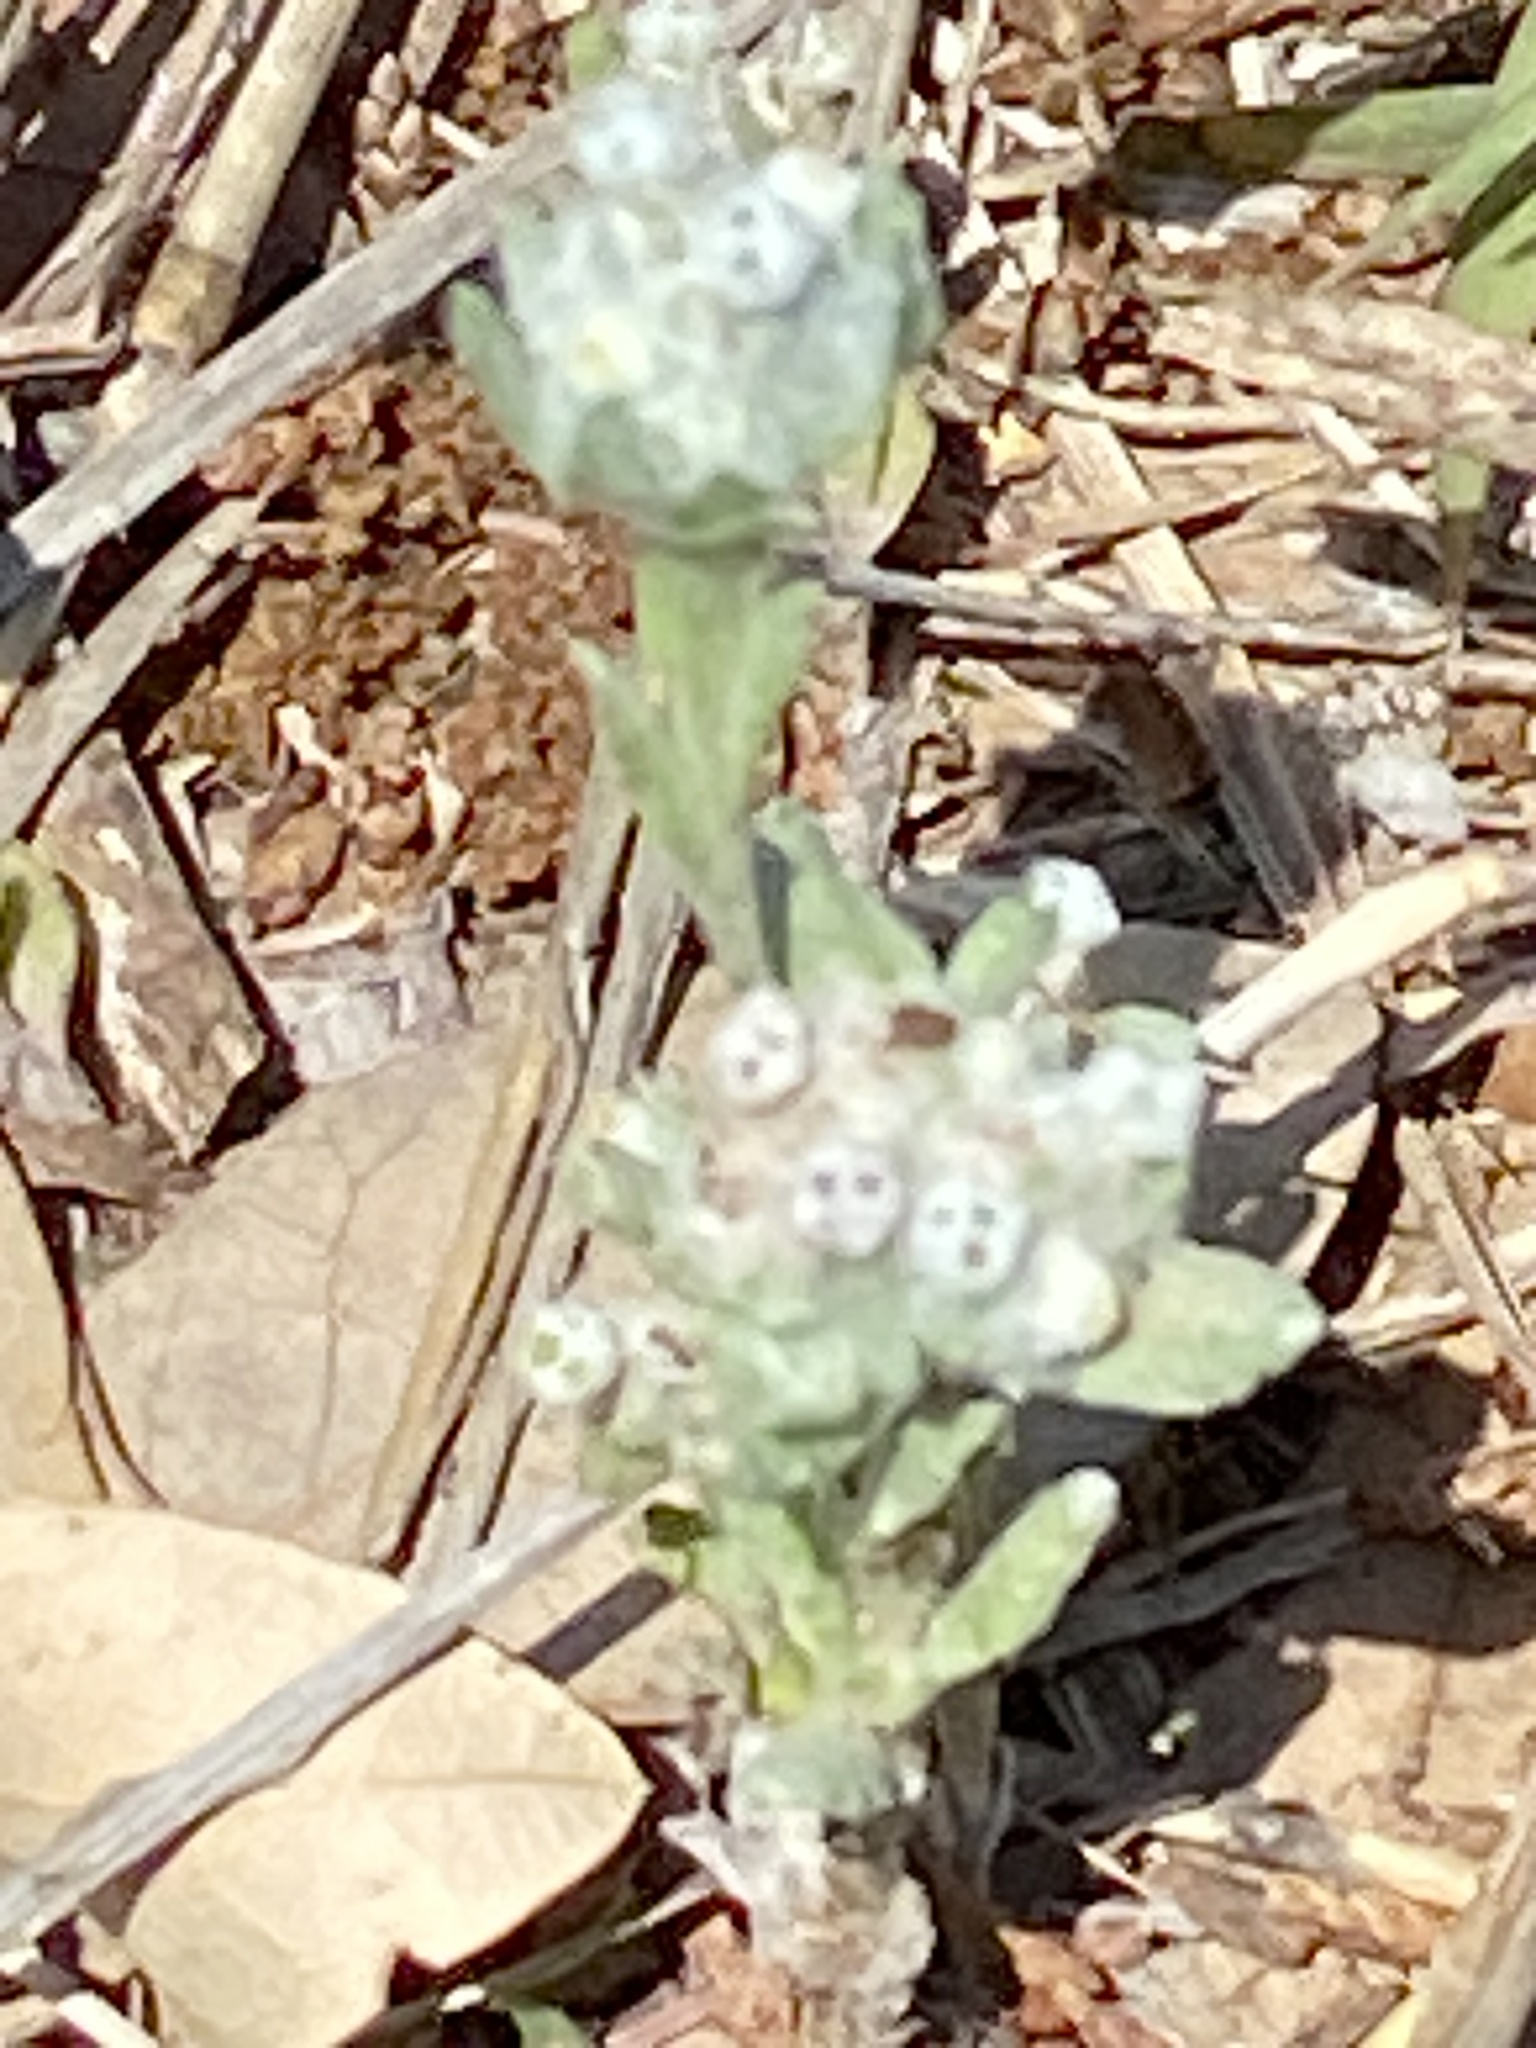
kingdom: Plantae
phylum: Tracheophyta
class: Magnoliopsida
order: Asterales
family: Asteraceae
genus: Diaperia
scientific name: Diaperia verna
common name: Many-stem rabbit-tobacco
